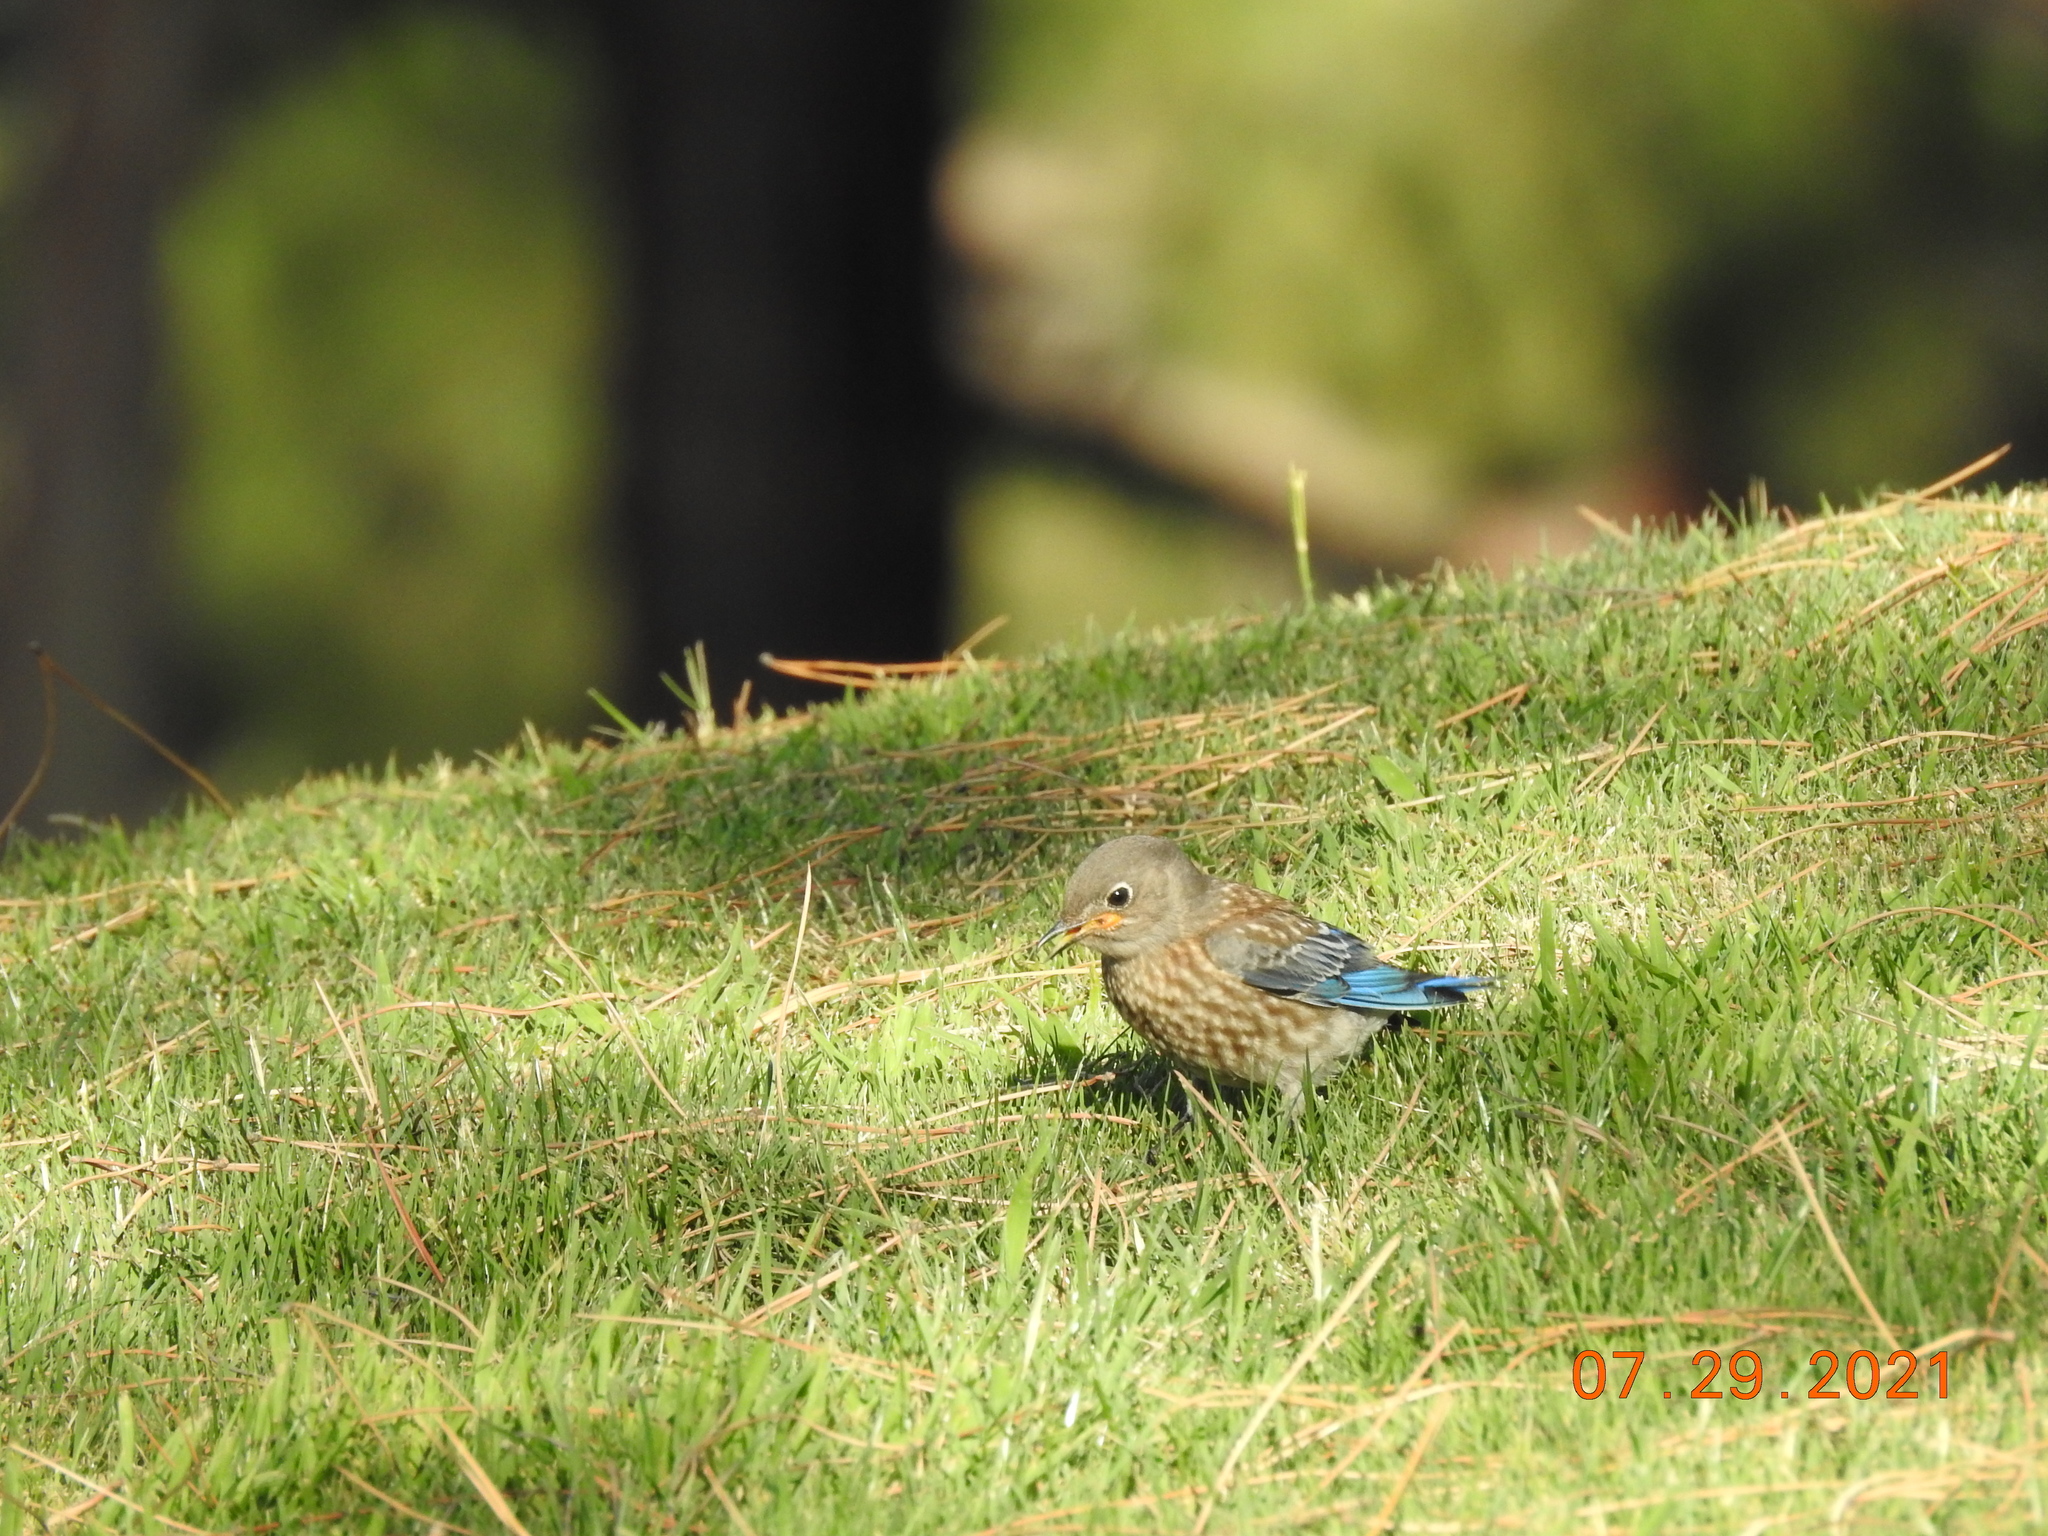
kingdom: Animalia
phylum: Chordata
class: Aves
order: Passeriformes
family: Turdidae
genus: Sialia
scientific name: Sialia mexicana
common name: Western bluebird
